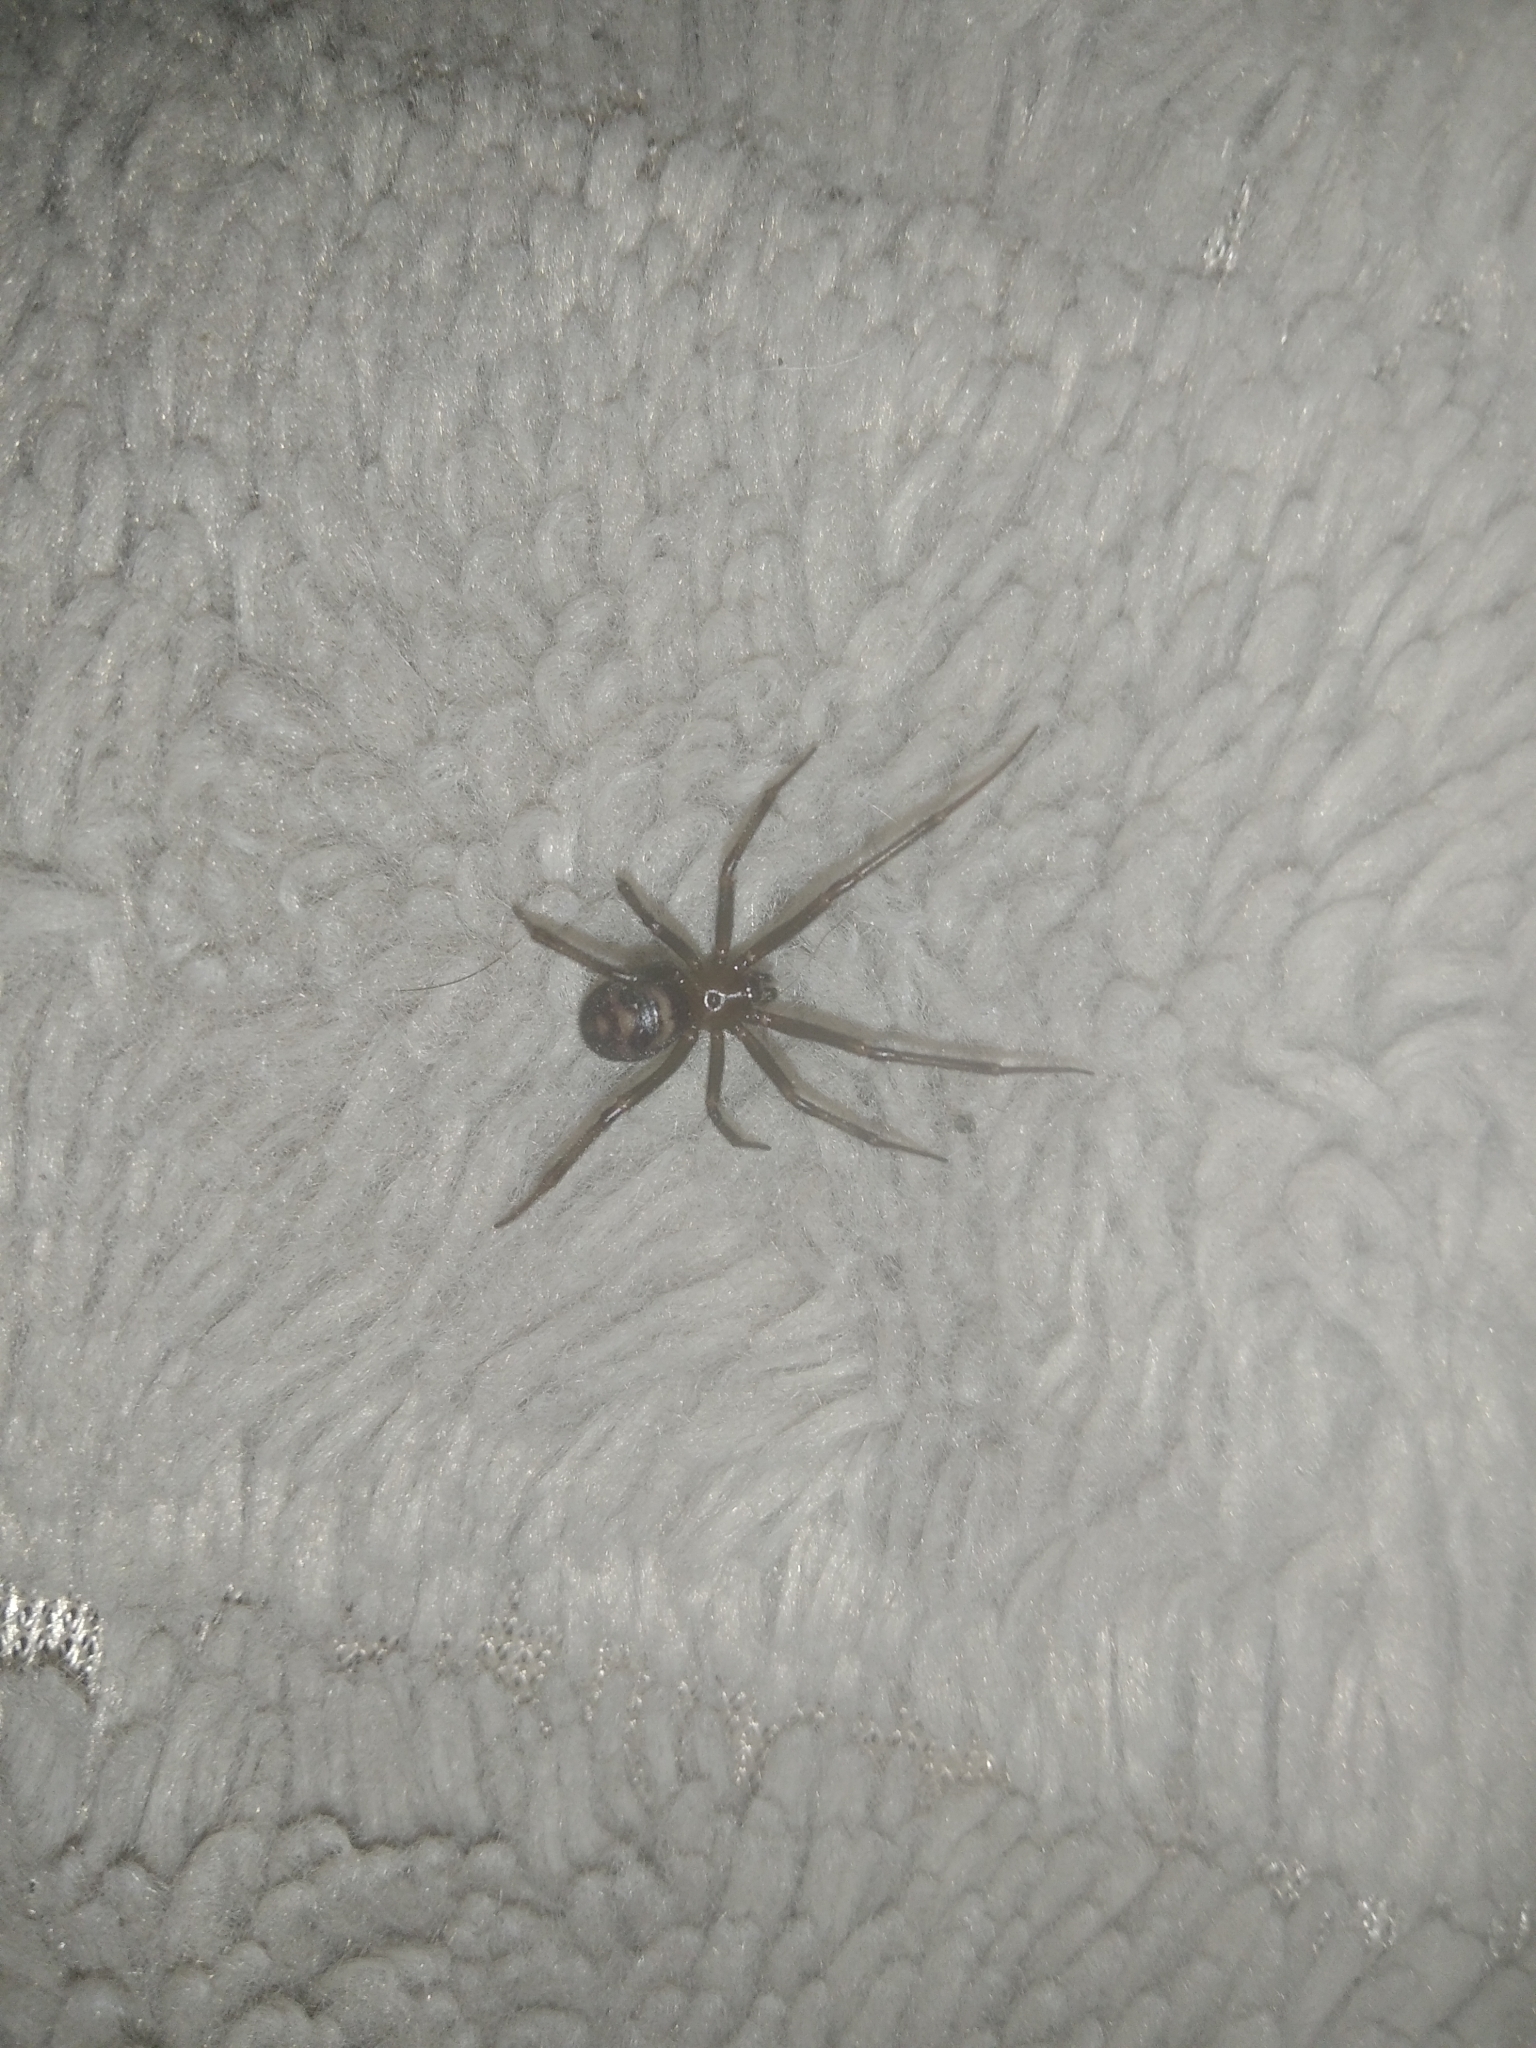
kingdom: Animalia
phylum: Arthropoda
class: Arachnida
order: Araneae
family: Theridiidae
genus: Steatoda
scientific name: Steatoda grossa
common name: False black widow
